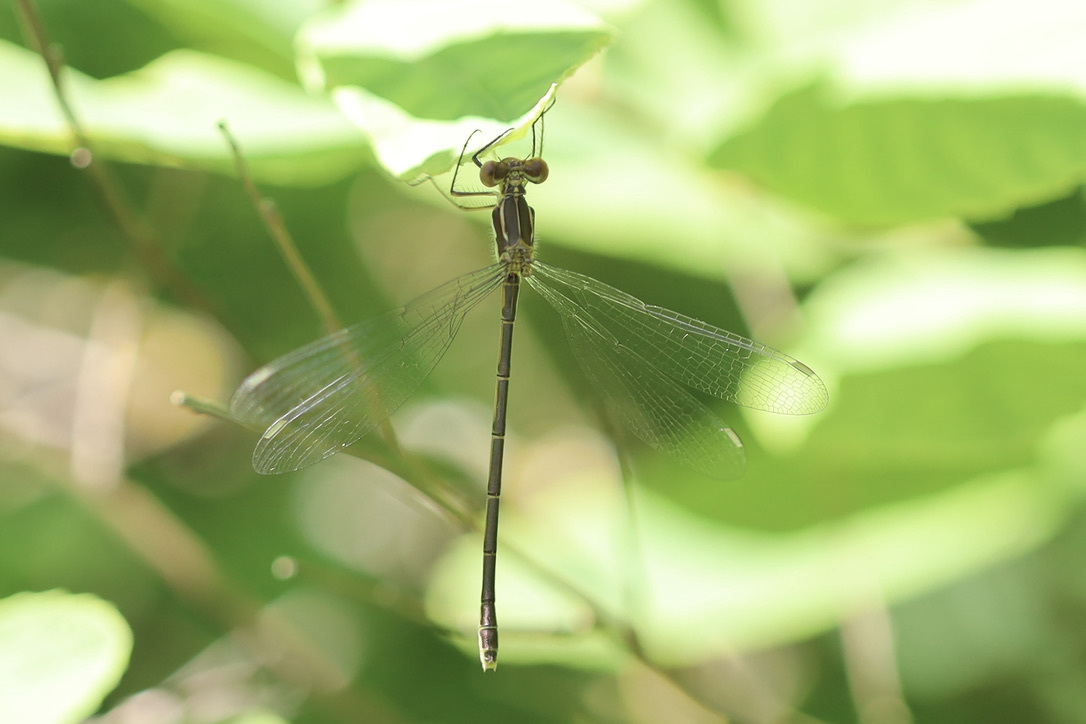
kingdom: Animalia
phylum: Arthropoda
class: Insecta
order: Odonata
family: Lestidae
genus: Lestes
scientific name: Lestes congener
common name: Spotted spreadwing
